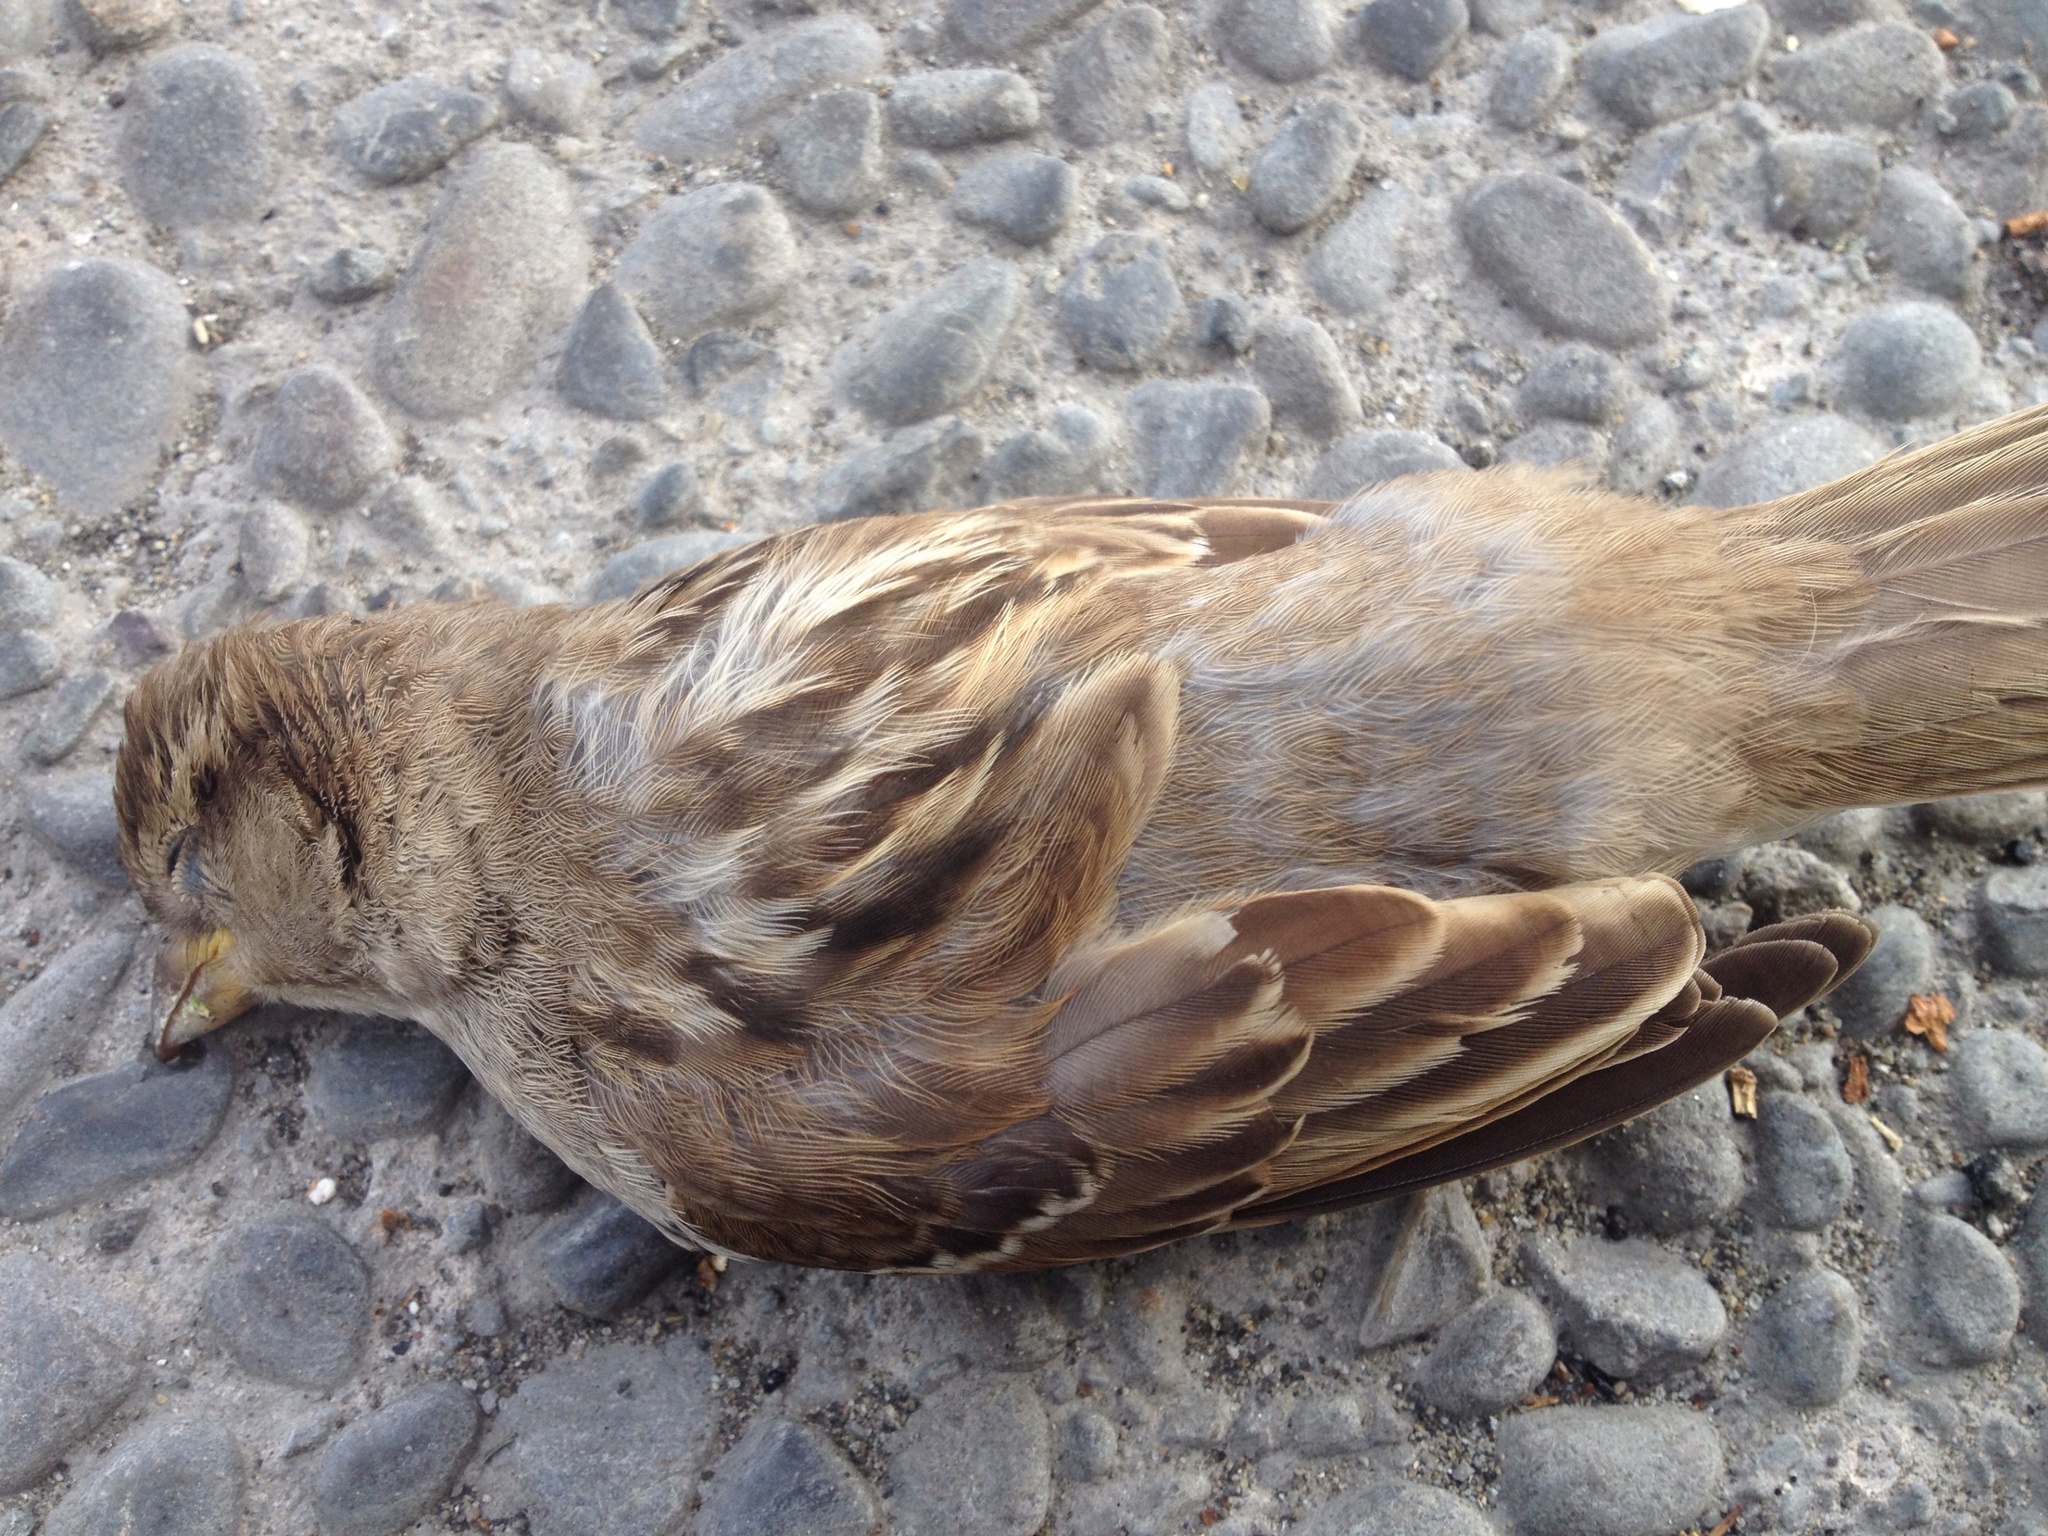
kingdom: Animalia
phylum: Chordata
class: Aves
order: Passeriformes
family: Passeridae
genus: Passer
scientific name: Passer domesticus
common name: House sparrow
